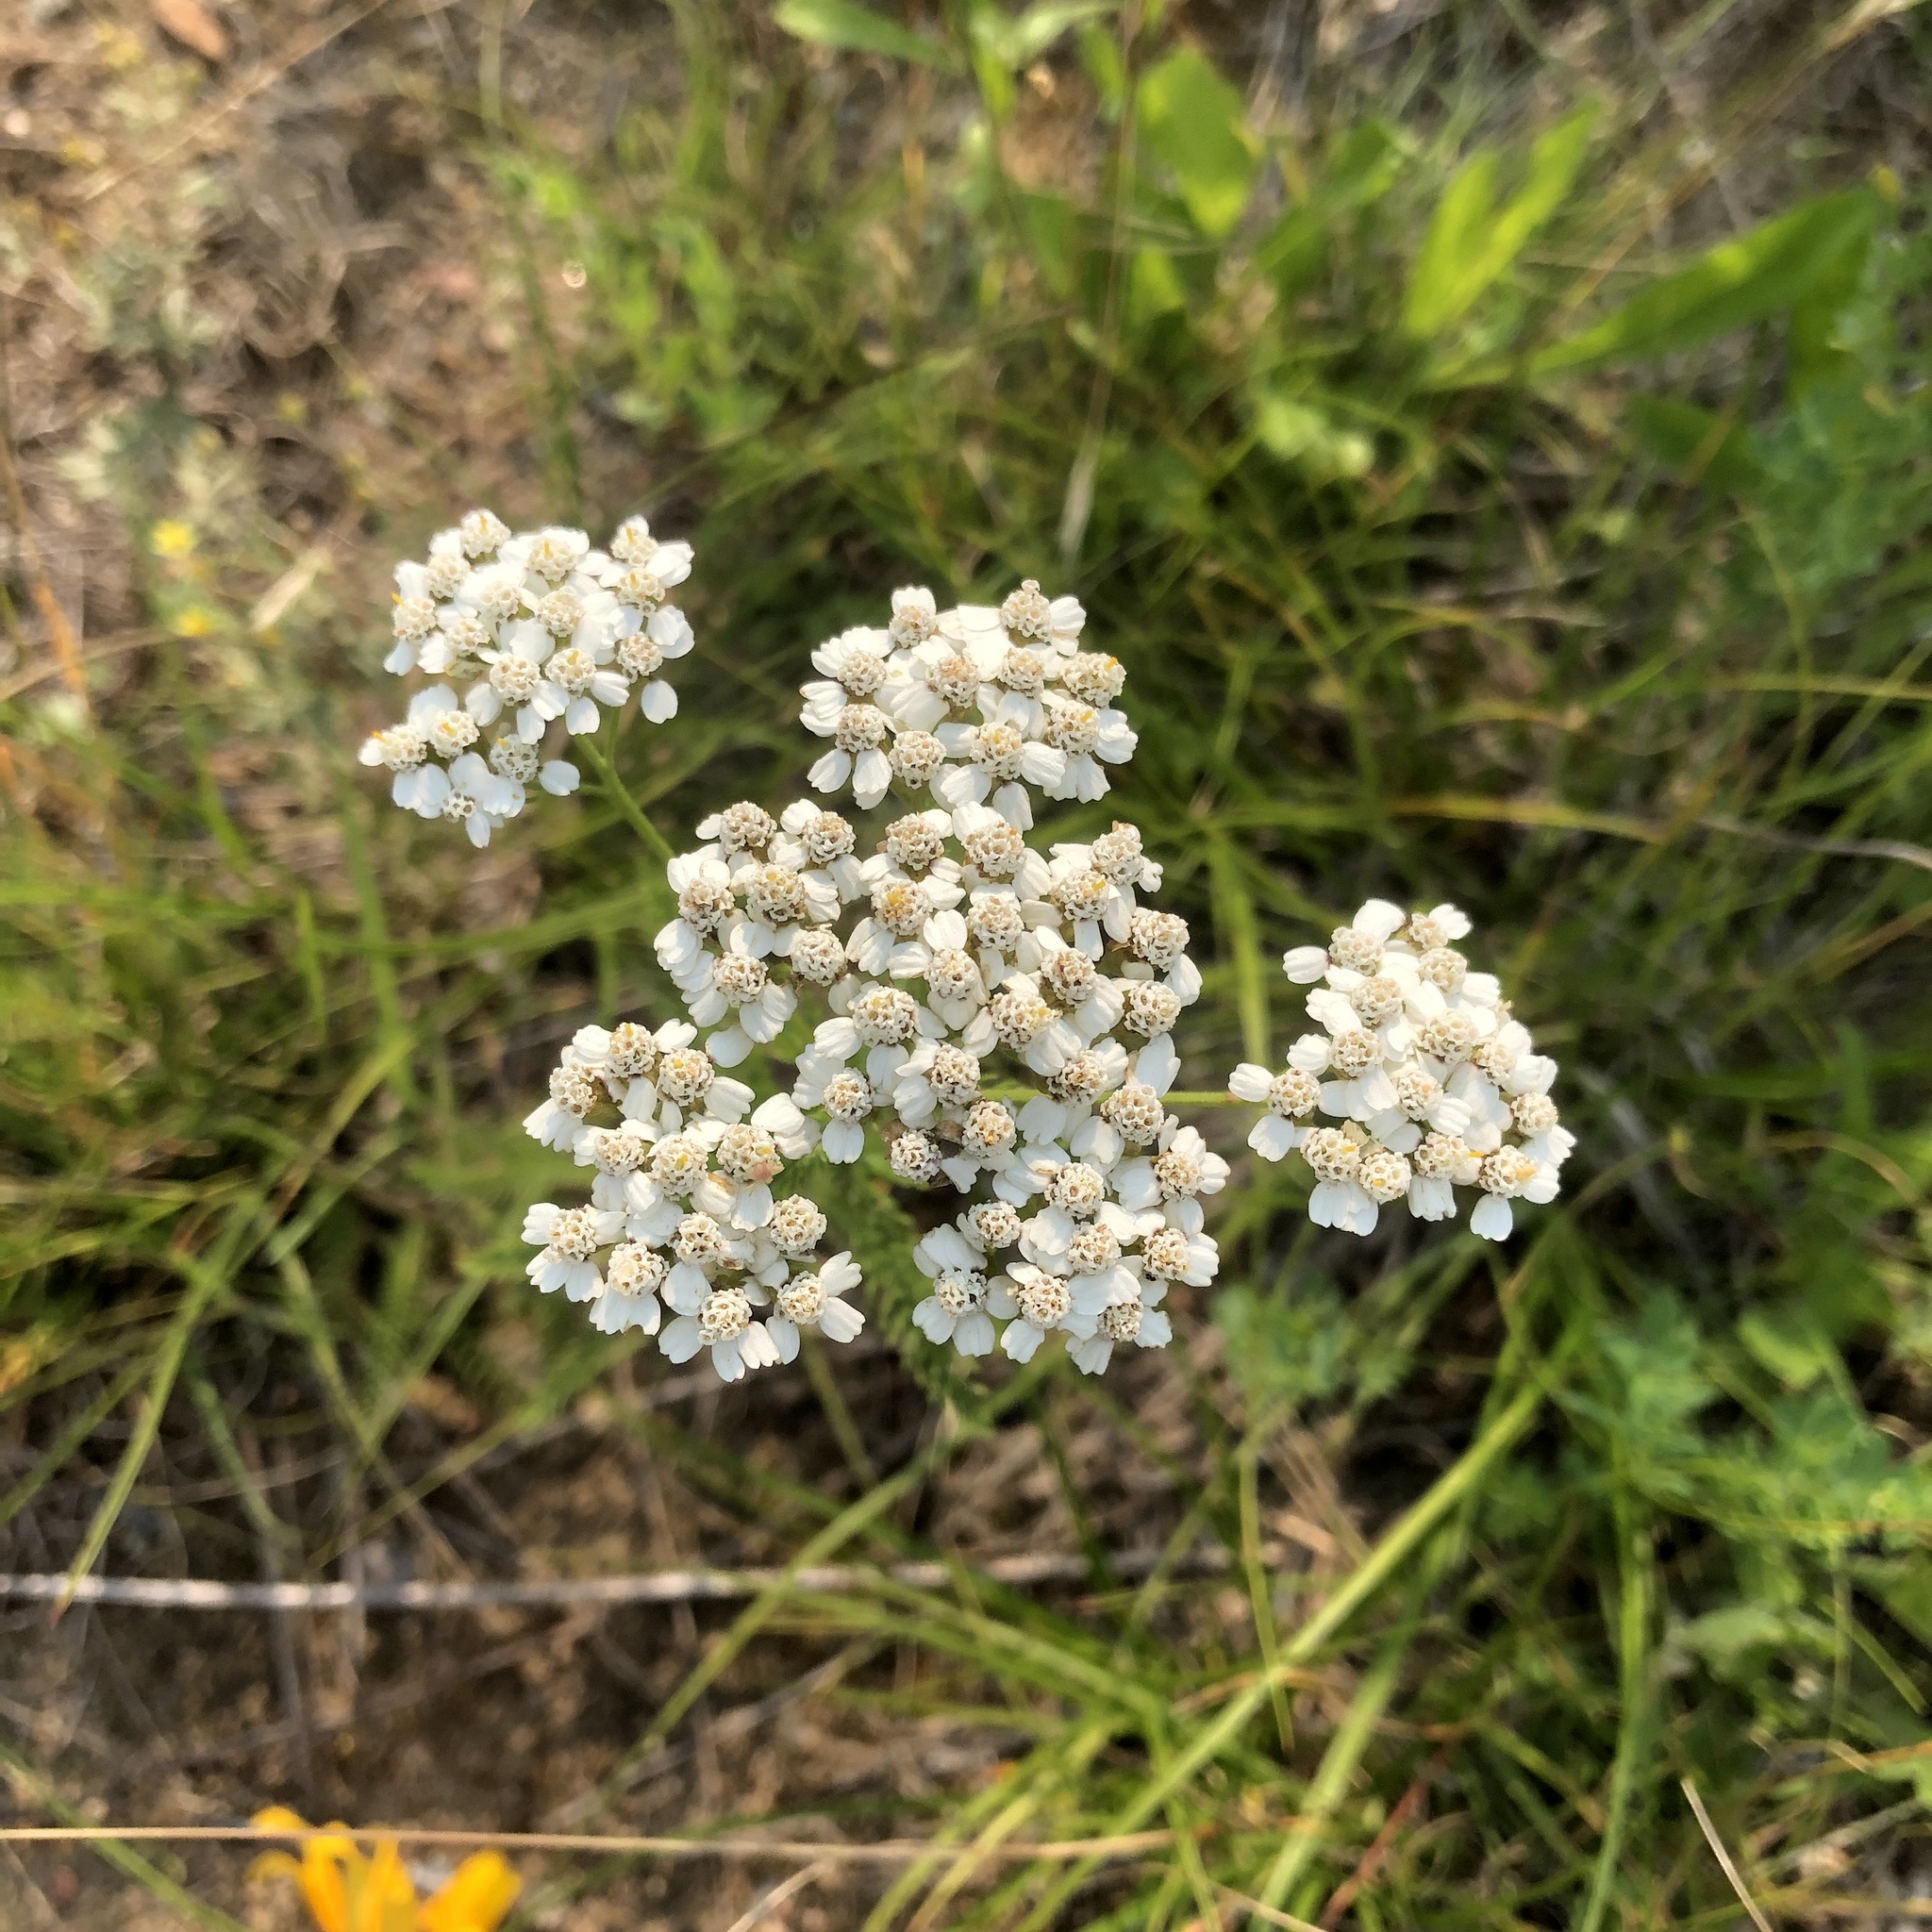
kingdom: Plantae
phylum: Tracheophyta
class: Magnoliopsida
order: Asterales
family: Asteraceae
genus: Achillea
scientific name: Achillea millefolium
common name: Yarrow
